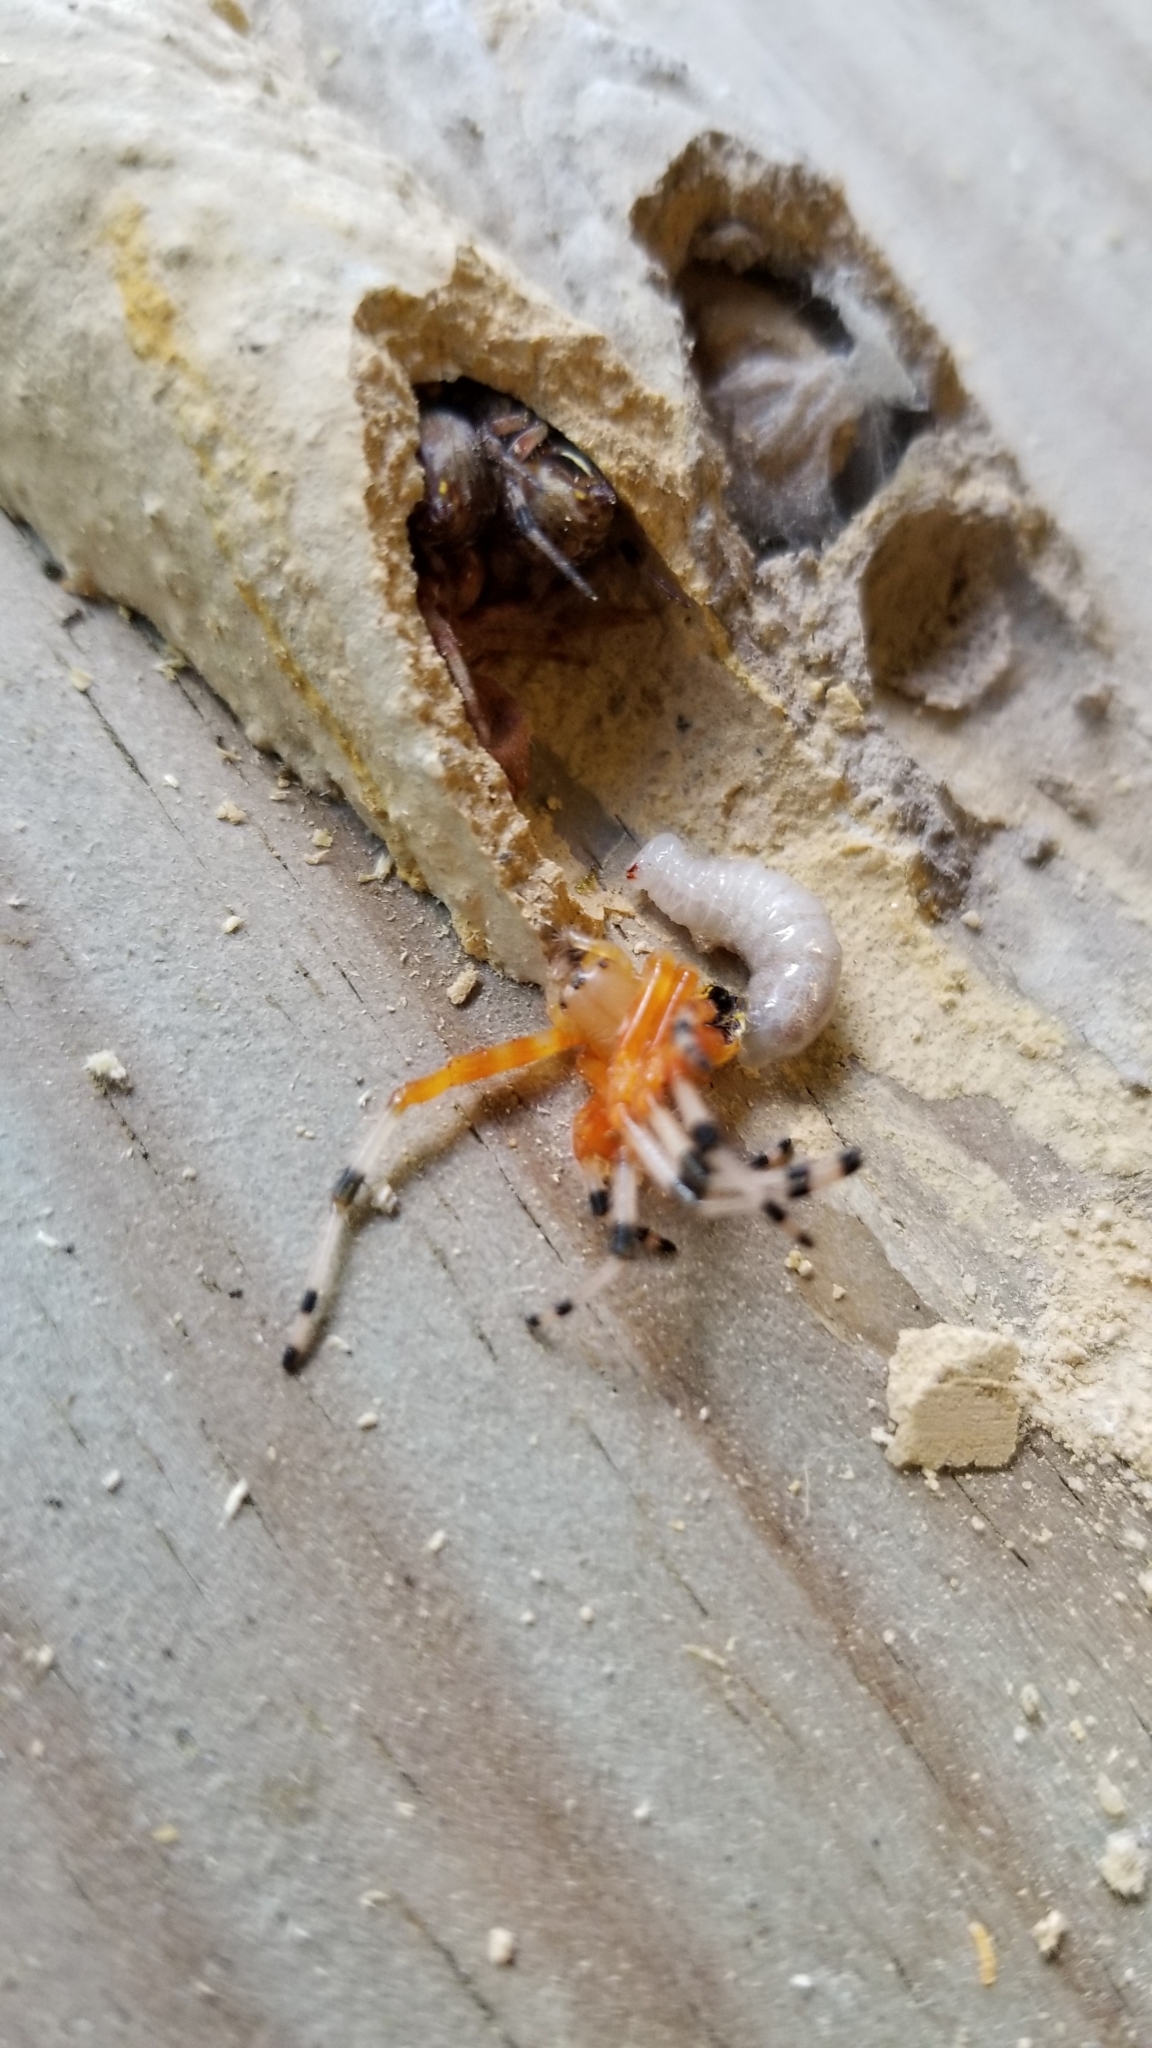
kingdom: Animalia
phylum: Arthropoda
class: Arachnida
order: Araneae
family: Araneidae
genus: Araneus
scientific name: Araneus marmoreus
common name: Marbled orbweaver
